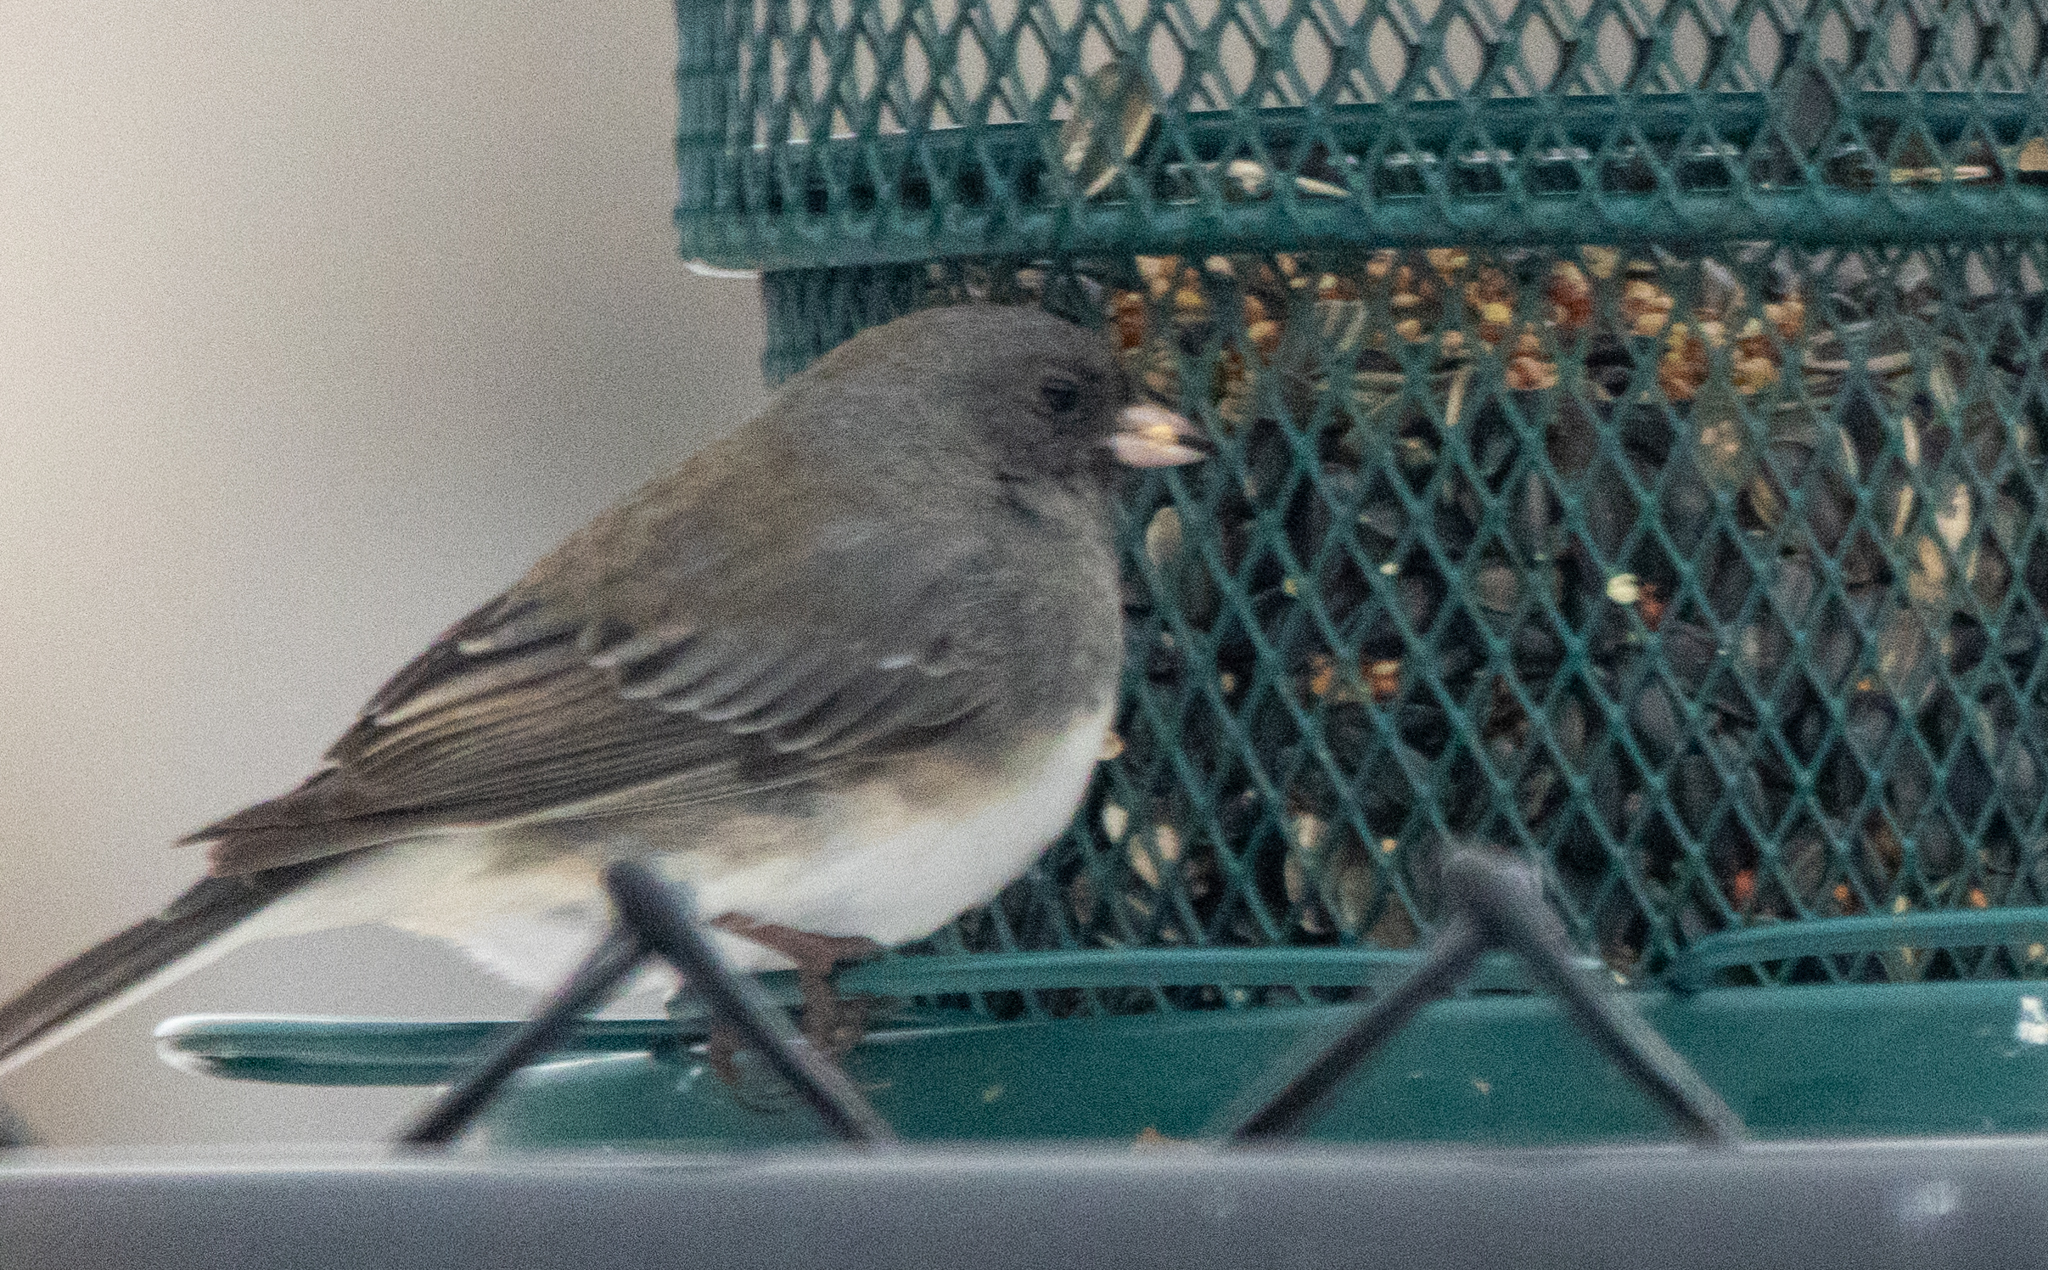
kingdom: Animalia
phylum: Chordata
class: Aves
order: Passeriformes
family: Passerellidae
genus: Junco
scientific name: Junco hyemalis
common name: Dark-eyed junco
